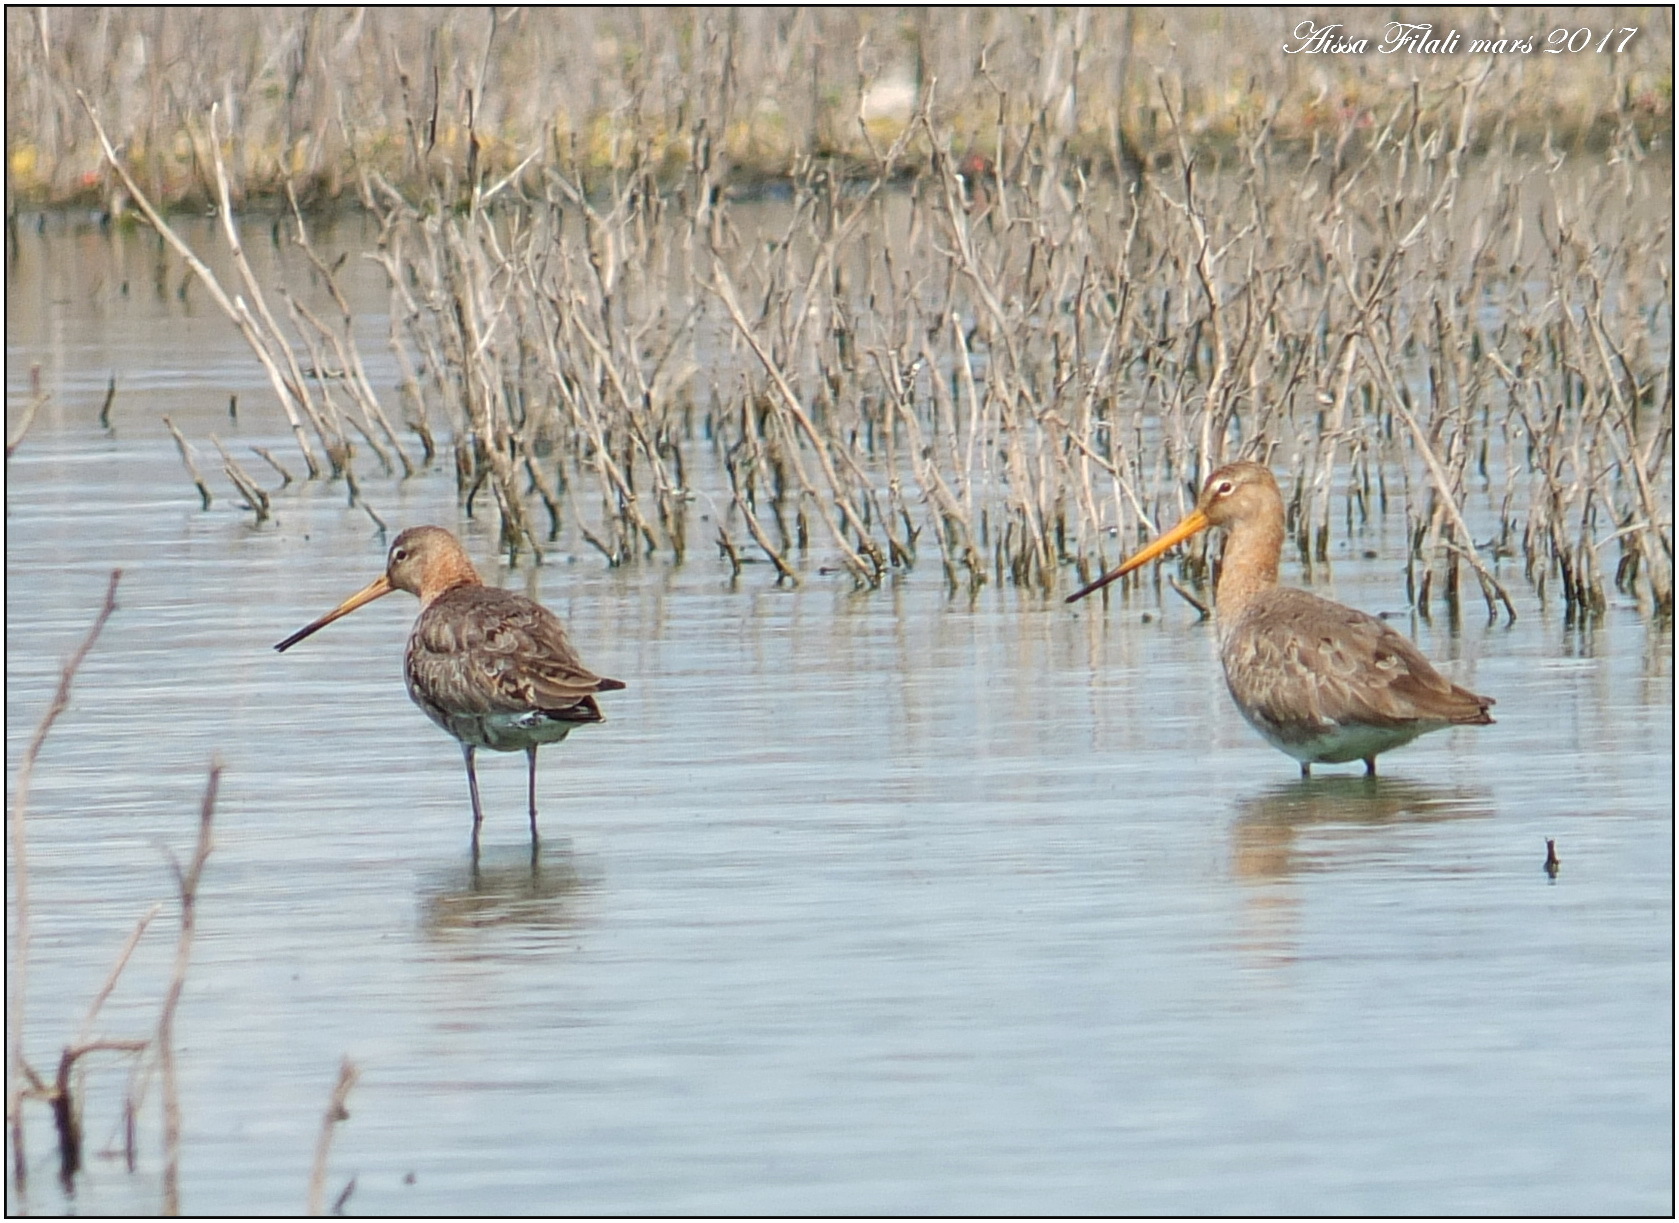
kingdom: Animalia
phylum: Chordata
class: Aves
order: Charadriiformes
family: Scolopacidae
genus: Limosa
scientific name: Limosa limosa
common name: Black-tailed godwit
